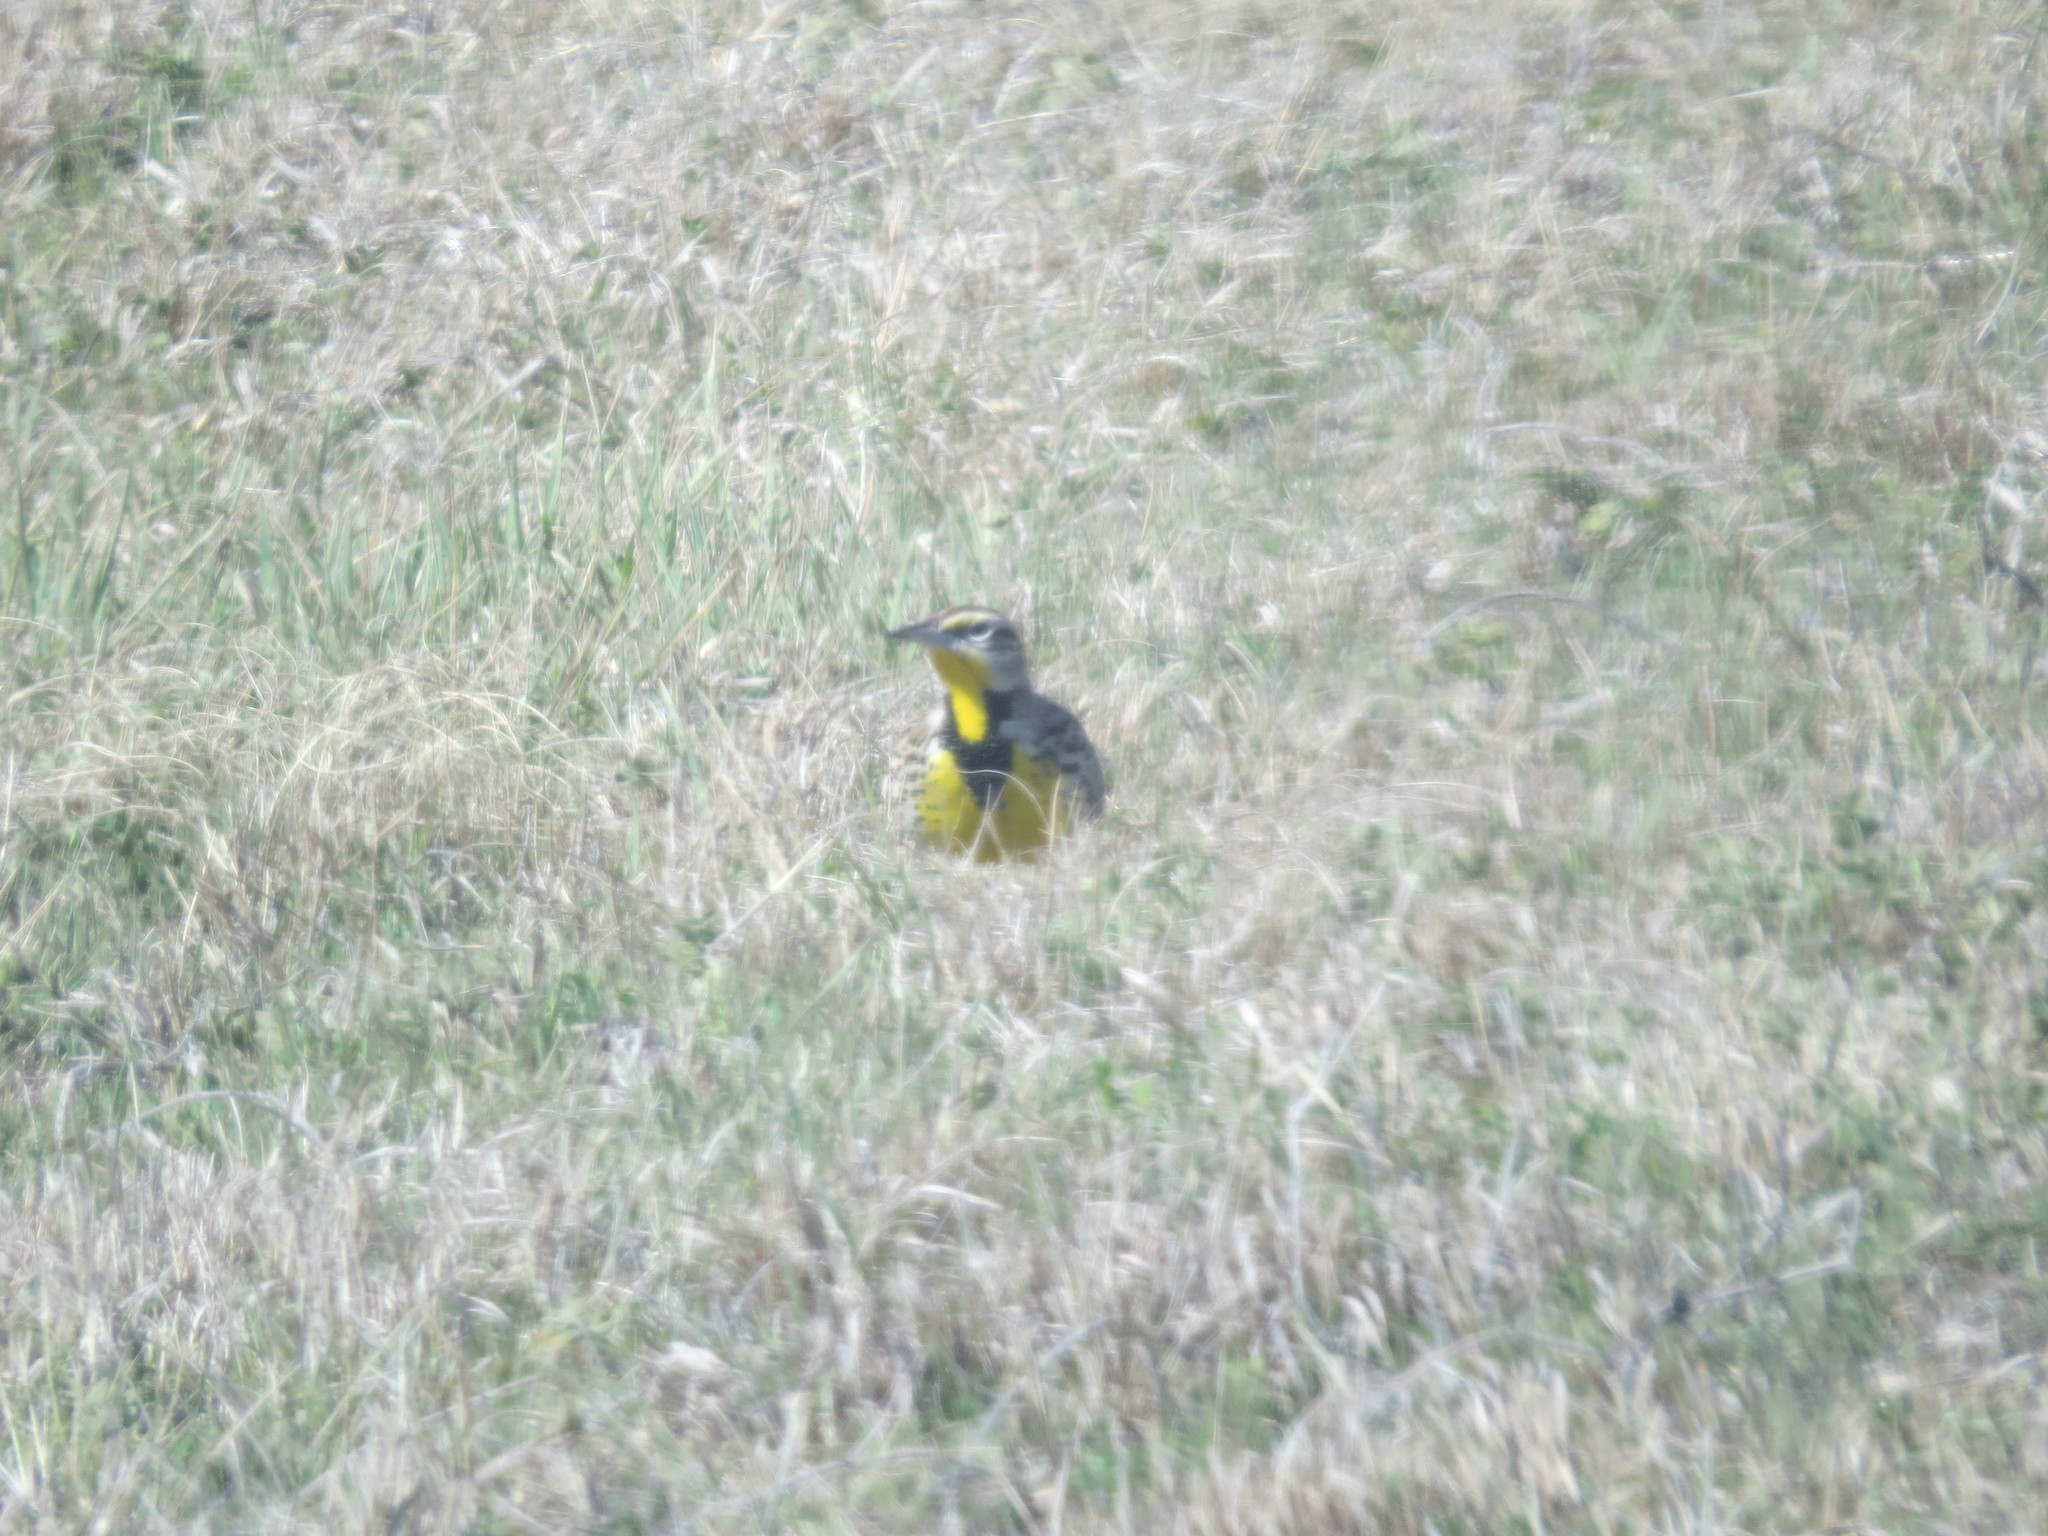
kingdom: Animalia
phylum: Chordata
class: Aves
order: Passeriformes
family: Icteridae
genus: Sturnella
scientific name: Sturnella neglecta
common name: Western meadowlark
